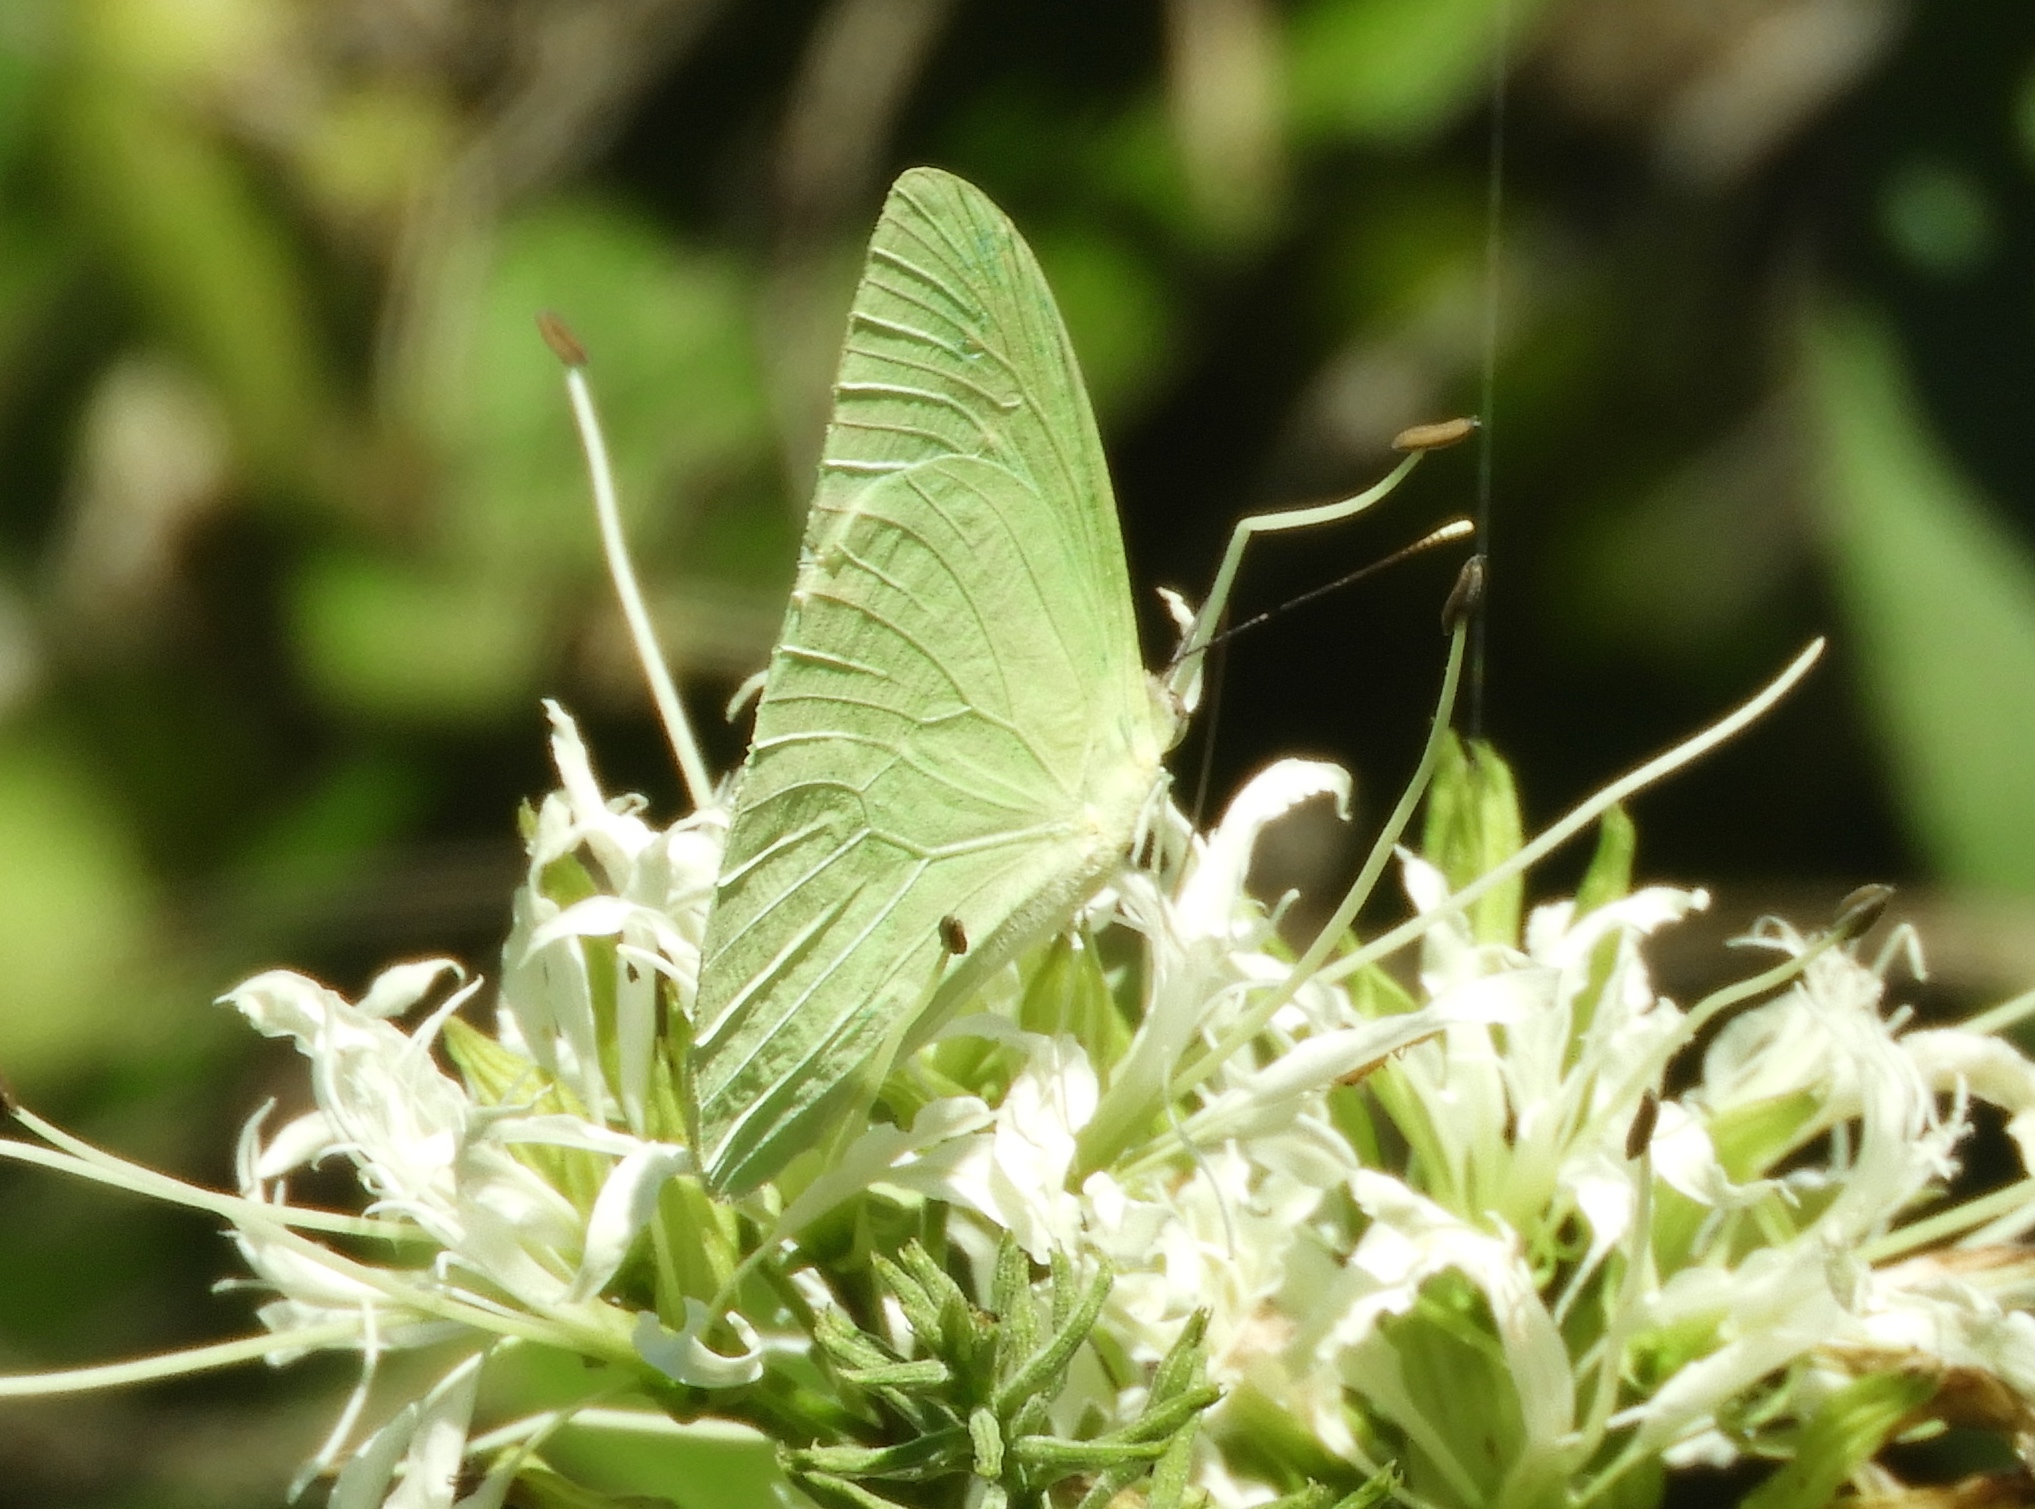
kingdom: Animalia
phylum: Arthropoda
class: Insecta
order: Lepidoptera
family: Pieridae
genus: Aphrissa
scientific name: Aphrissa statira
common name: Statira sulphur
